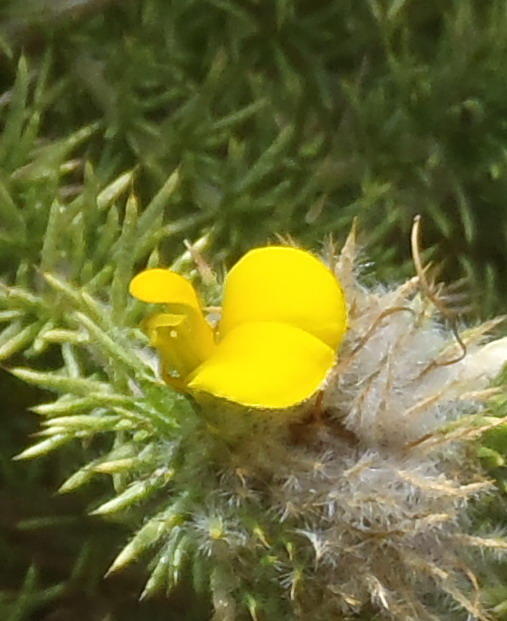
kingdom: Plantae
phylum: Tracheophyta
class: Magnoliopsida
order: Fabales
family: Fabaceae
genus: Aspalathus
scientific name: Aspalathus chenopoda
